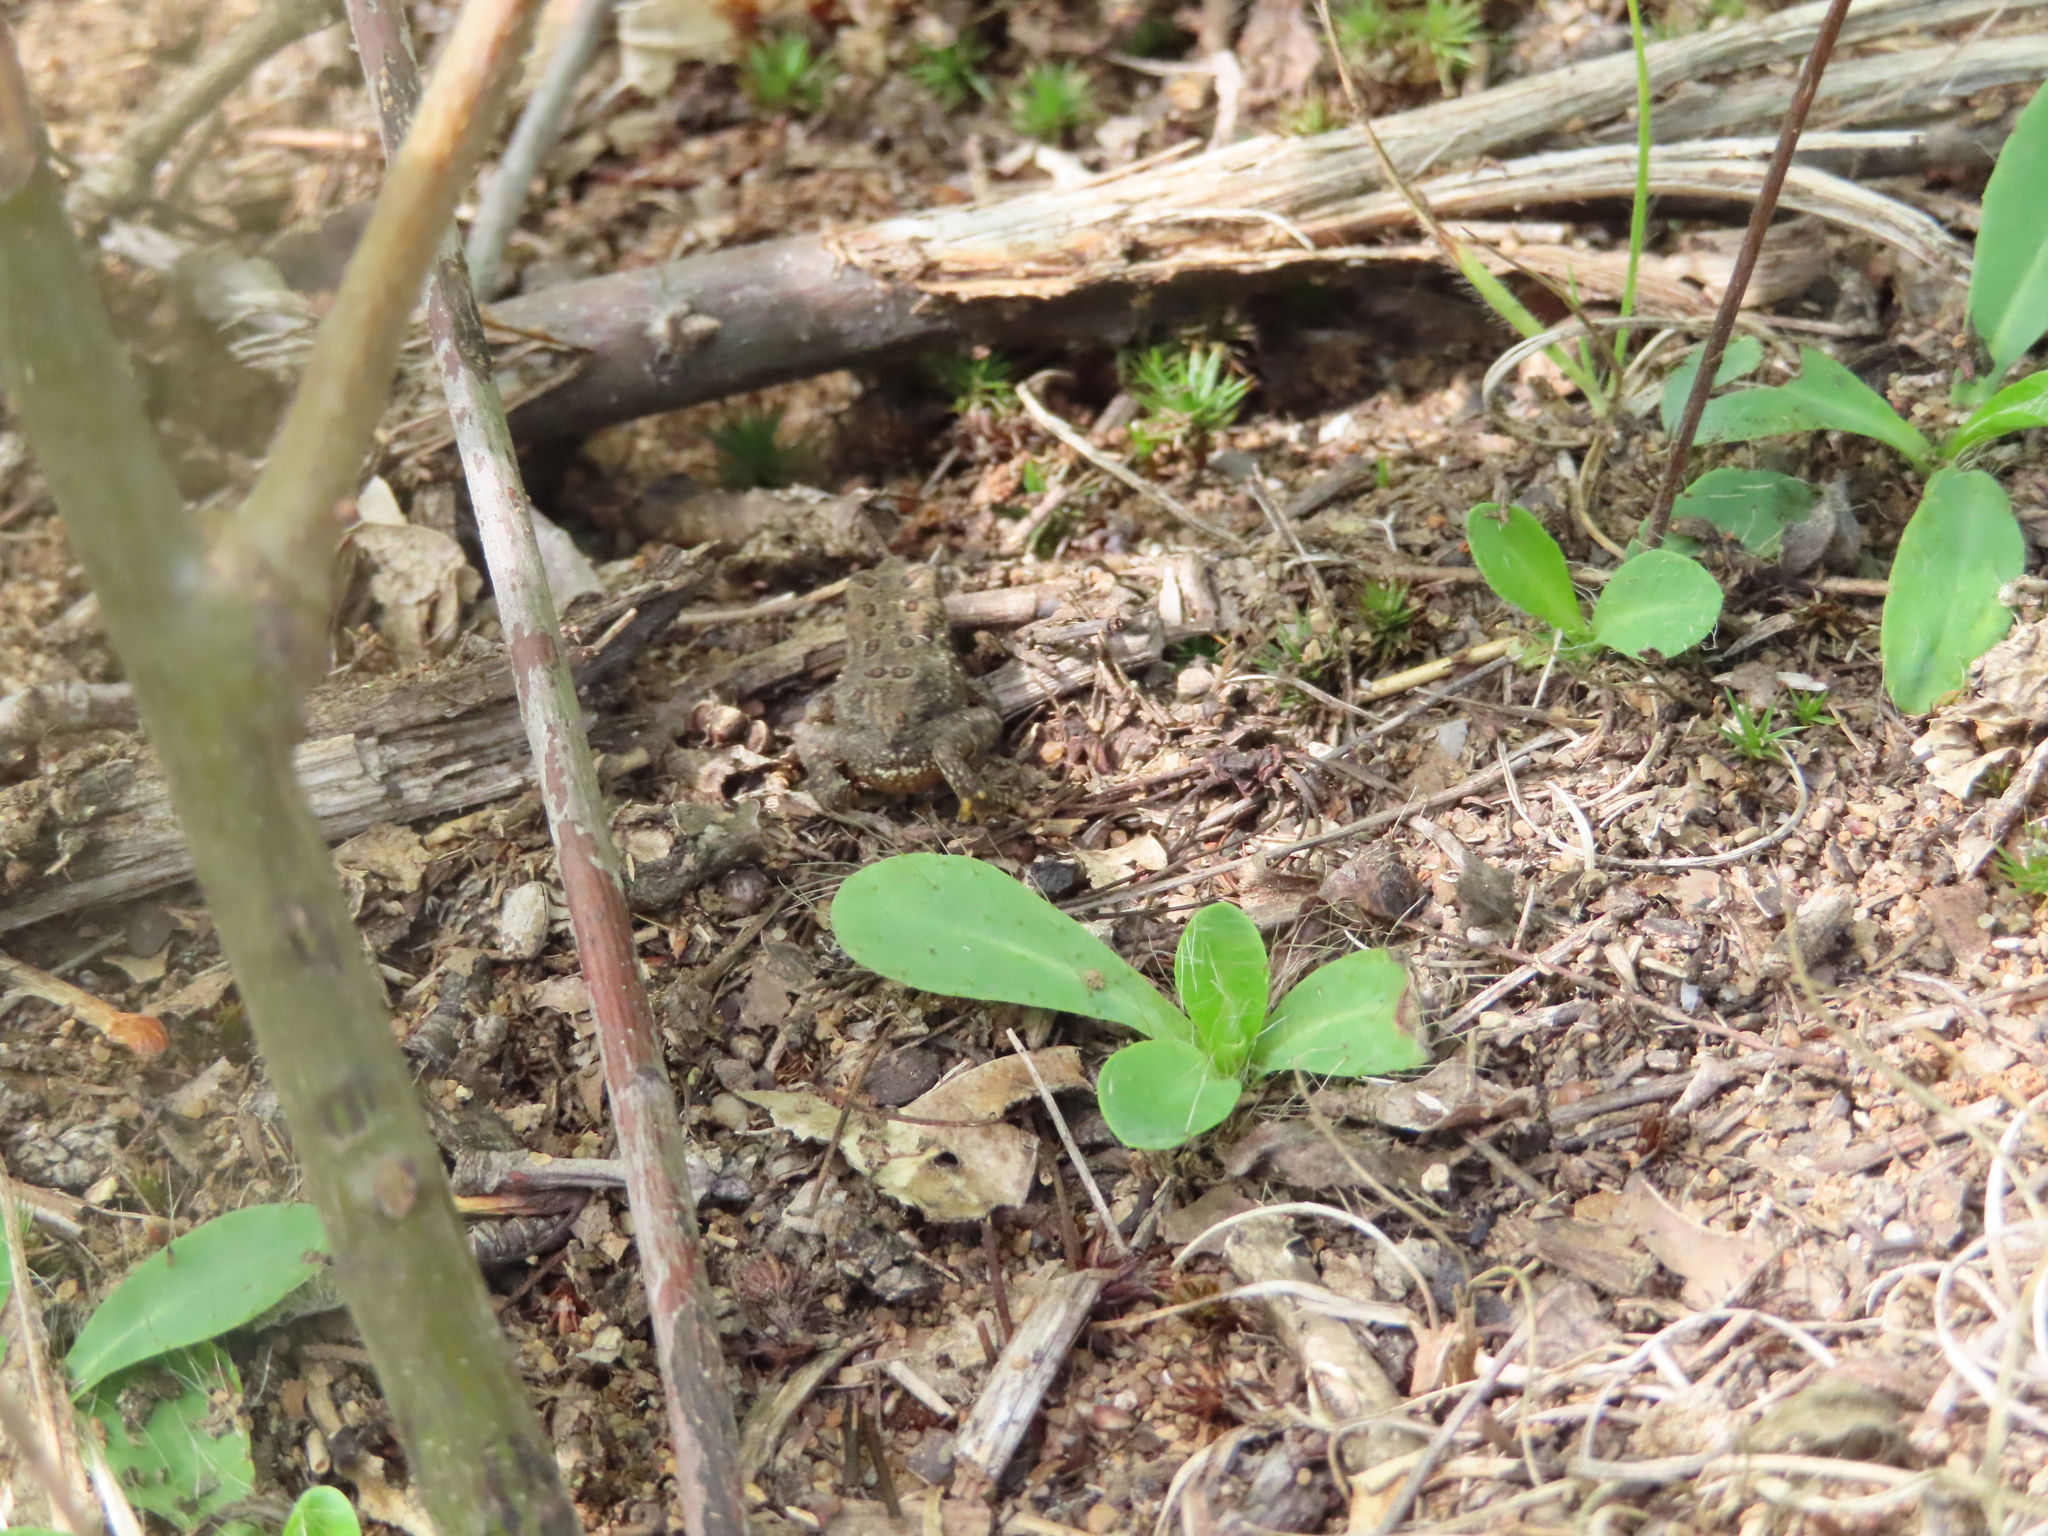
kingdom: Animalia
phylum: Chordata
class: Amphibia
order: Anura
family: Bufonidae
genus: Anaxyrus
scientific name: Anaxyrus americanus
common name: American toad
